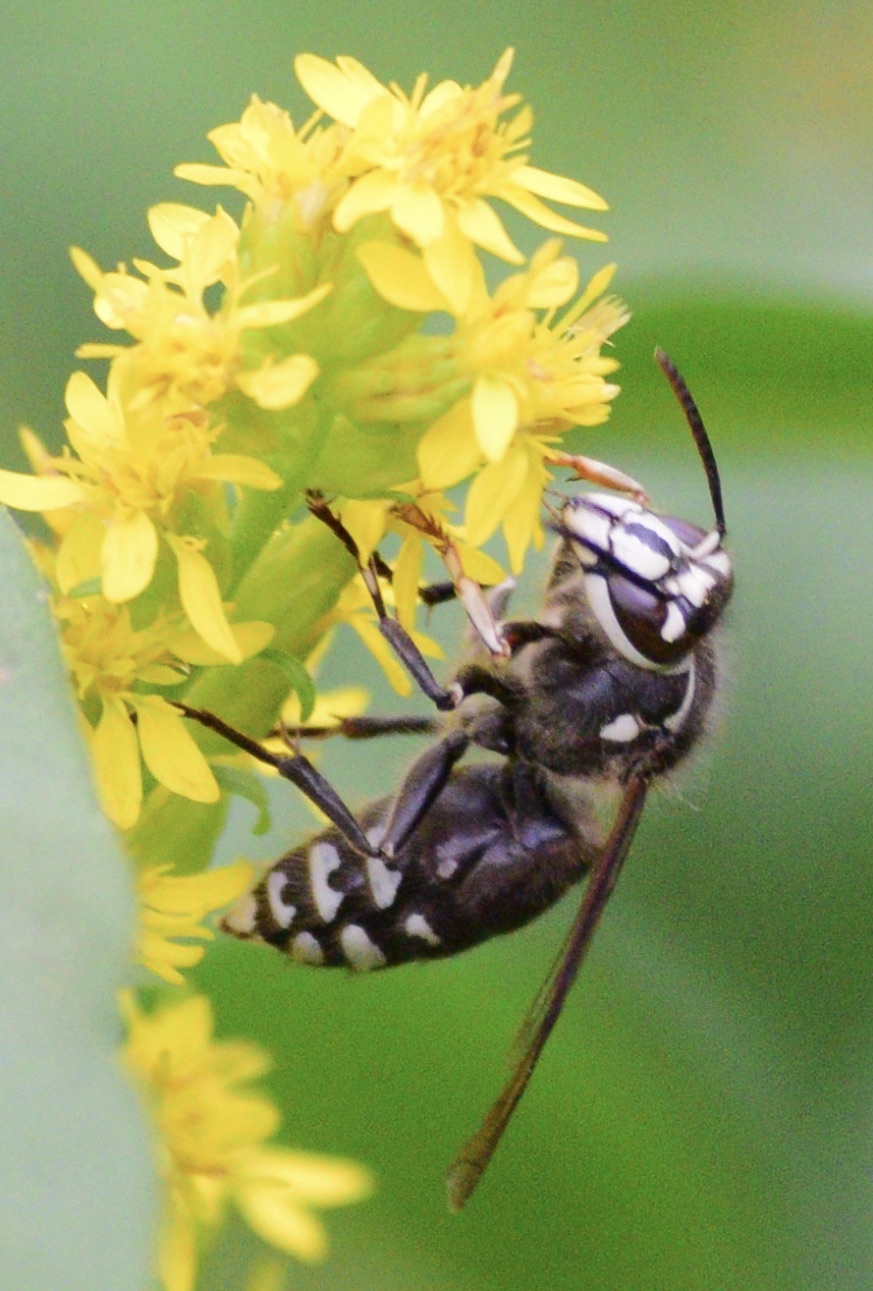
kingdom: Animalia
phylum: Arthropoda
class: Insecta
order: Hymenoptera
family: Vespidae
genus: Dolichovespula
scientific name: Dolichovespula maculata
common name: Bald-faced hornet
